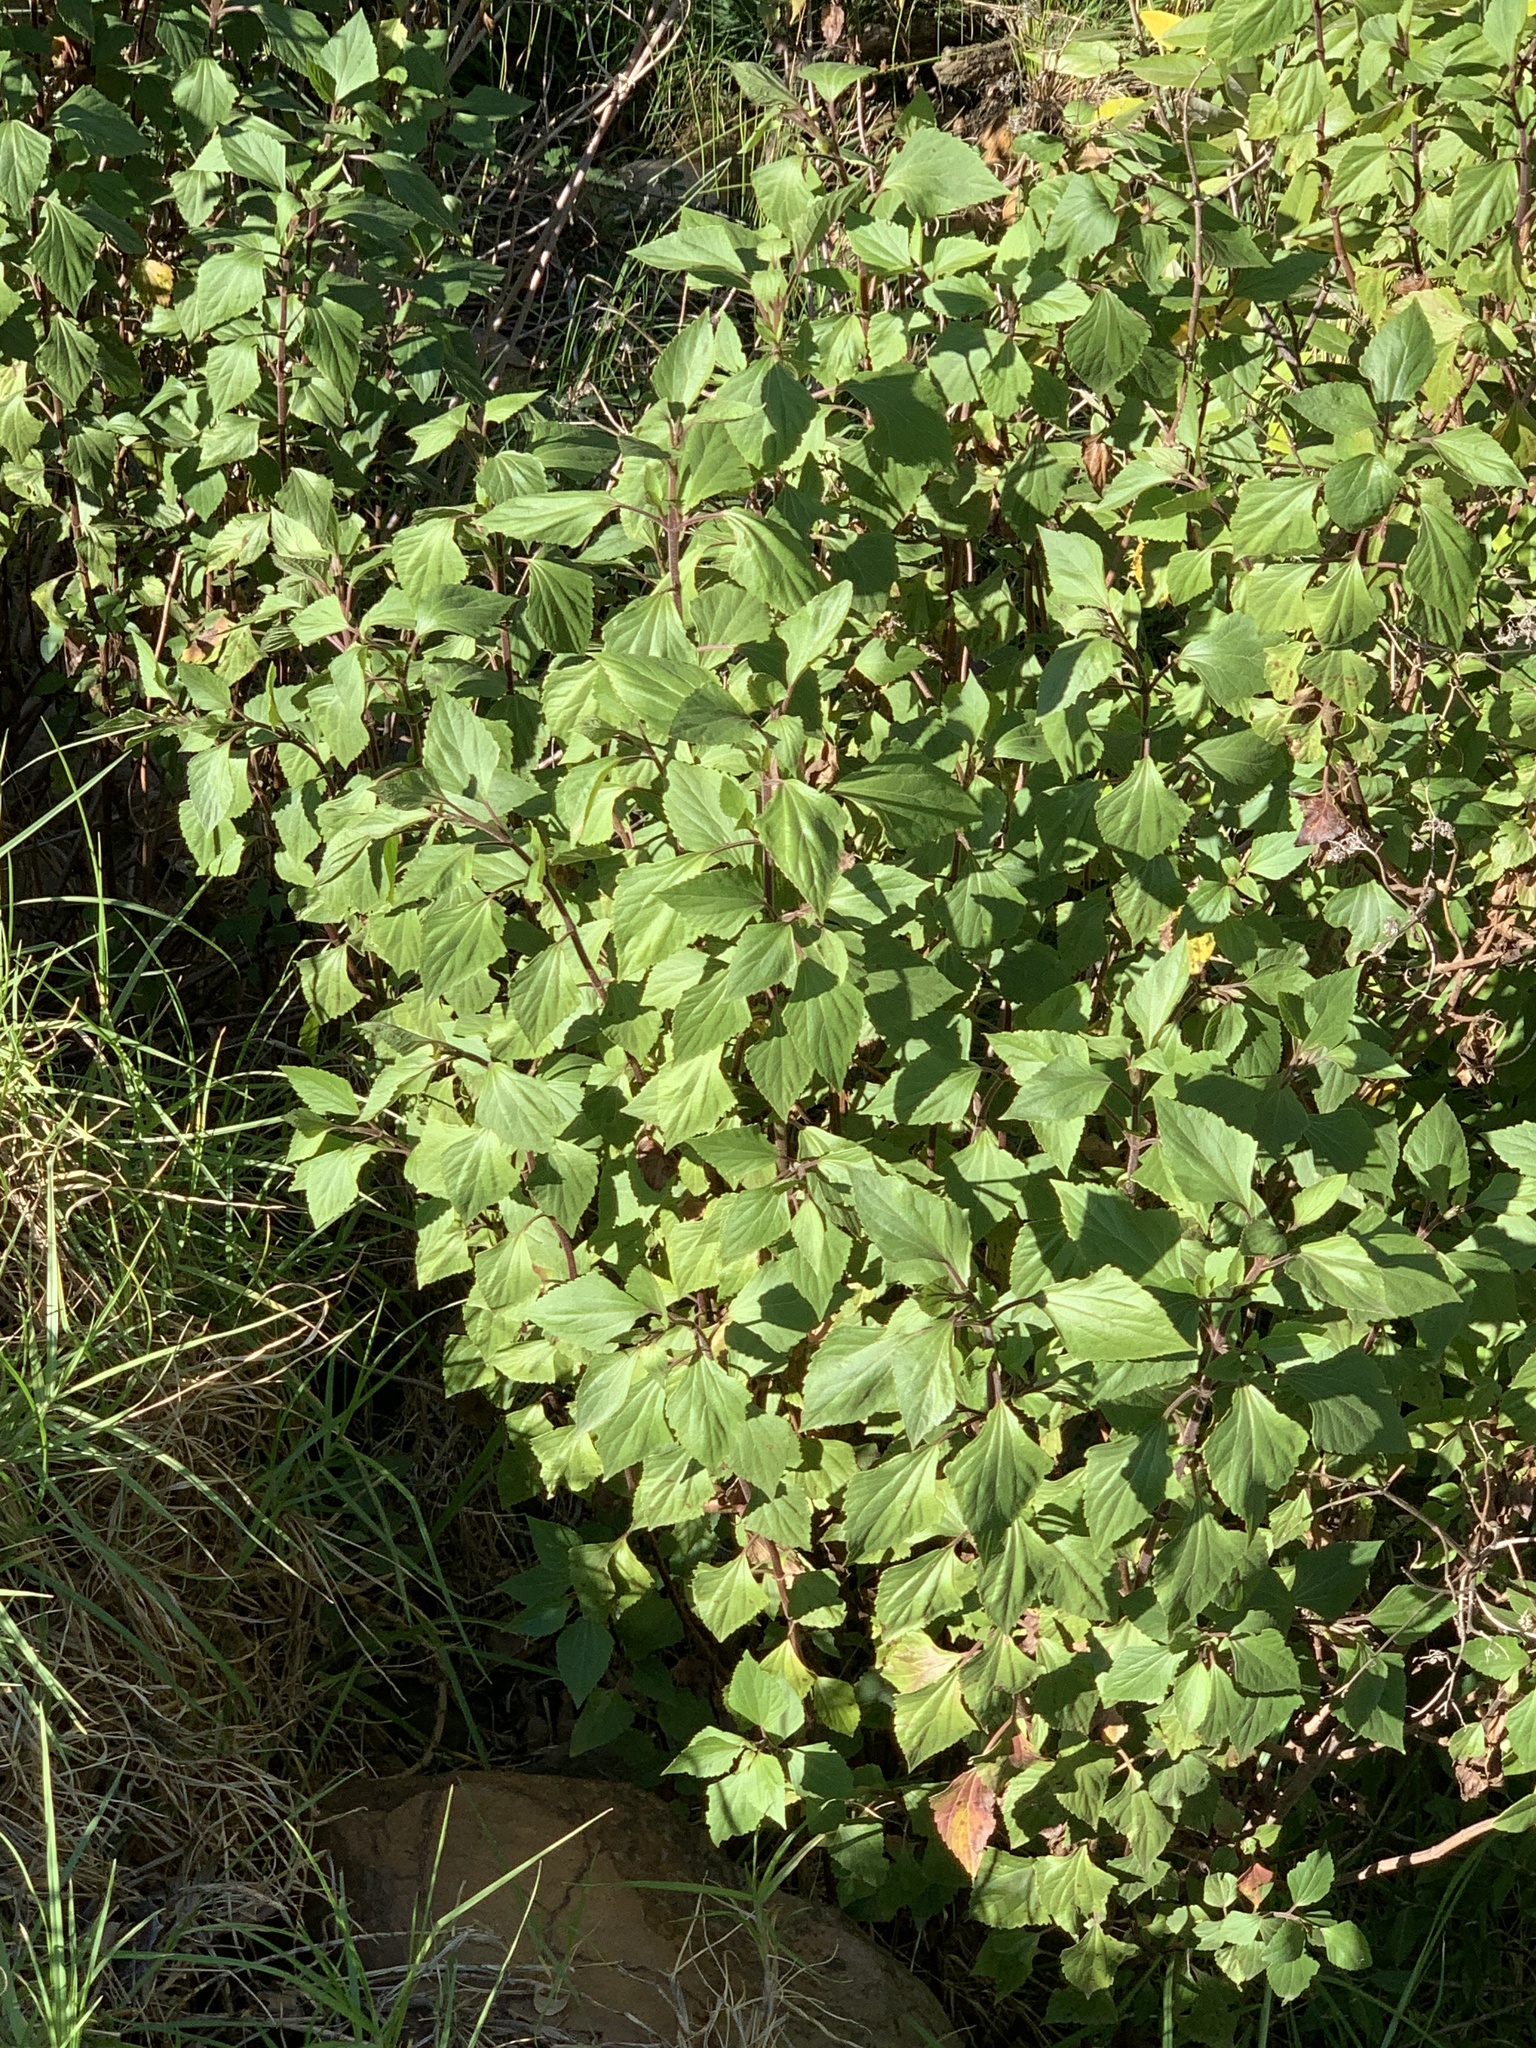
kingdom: Plantae
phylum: Tracheophyta
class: Magnoliopsida
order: Asterales
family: Asteraceae
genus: Ageratina
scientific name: Ageratina adenophora
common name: Sticky snakeroot
